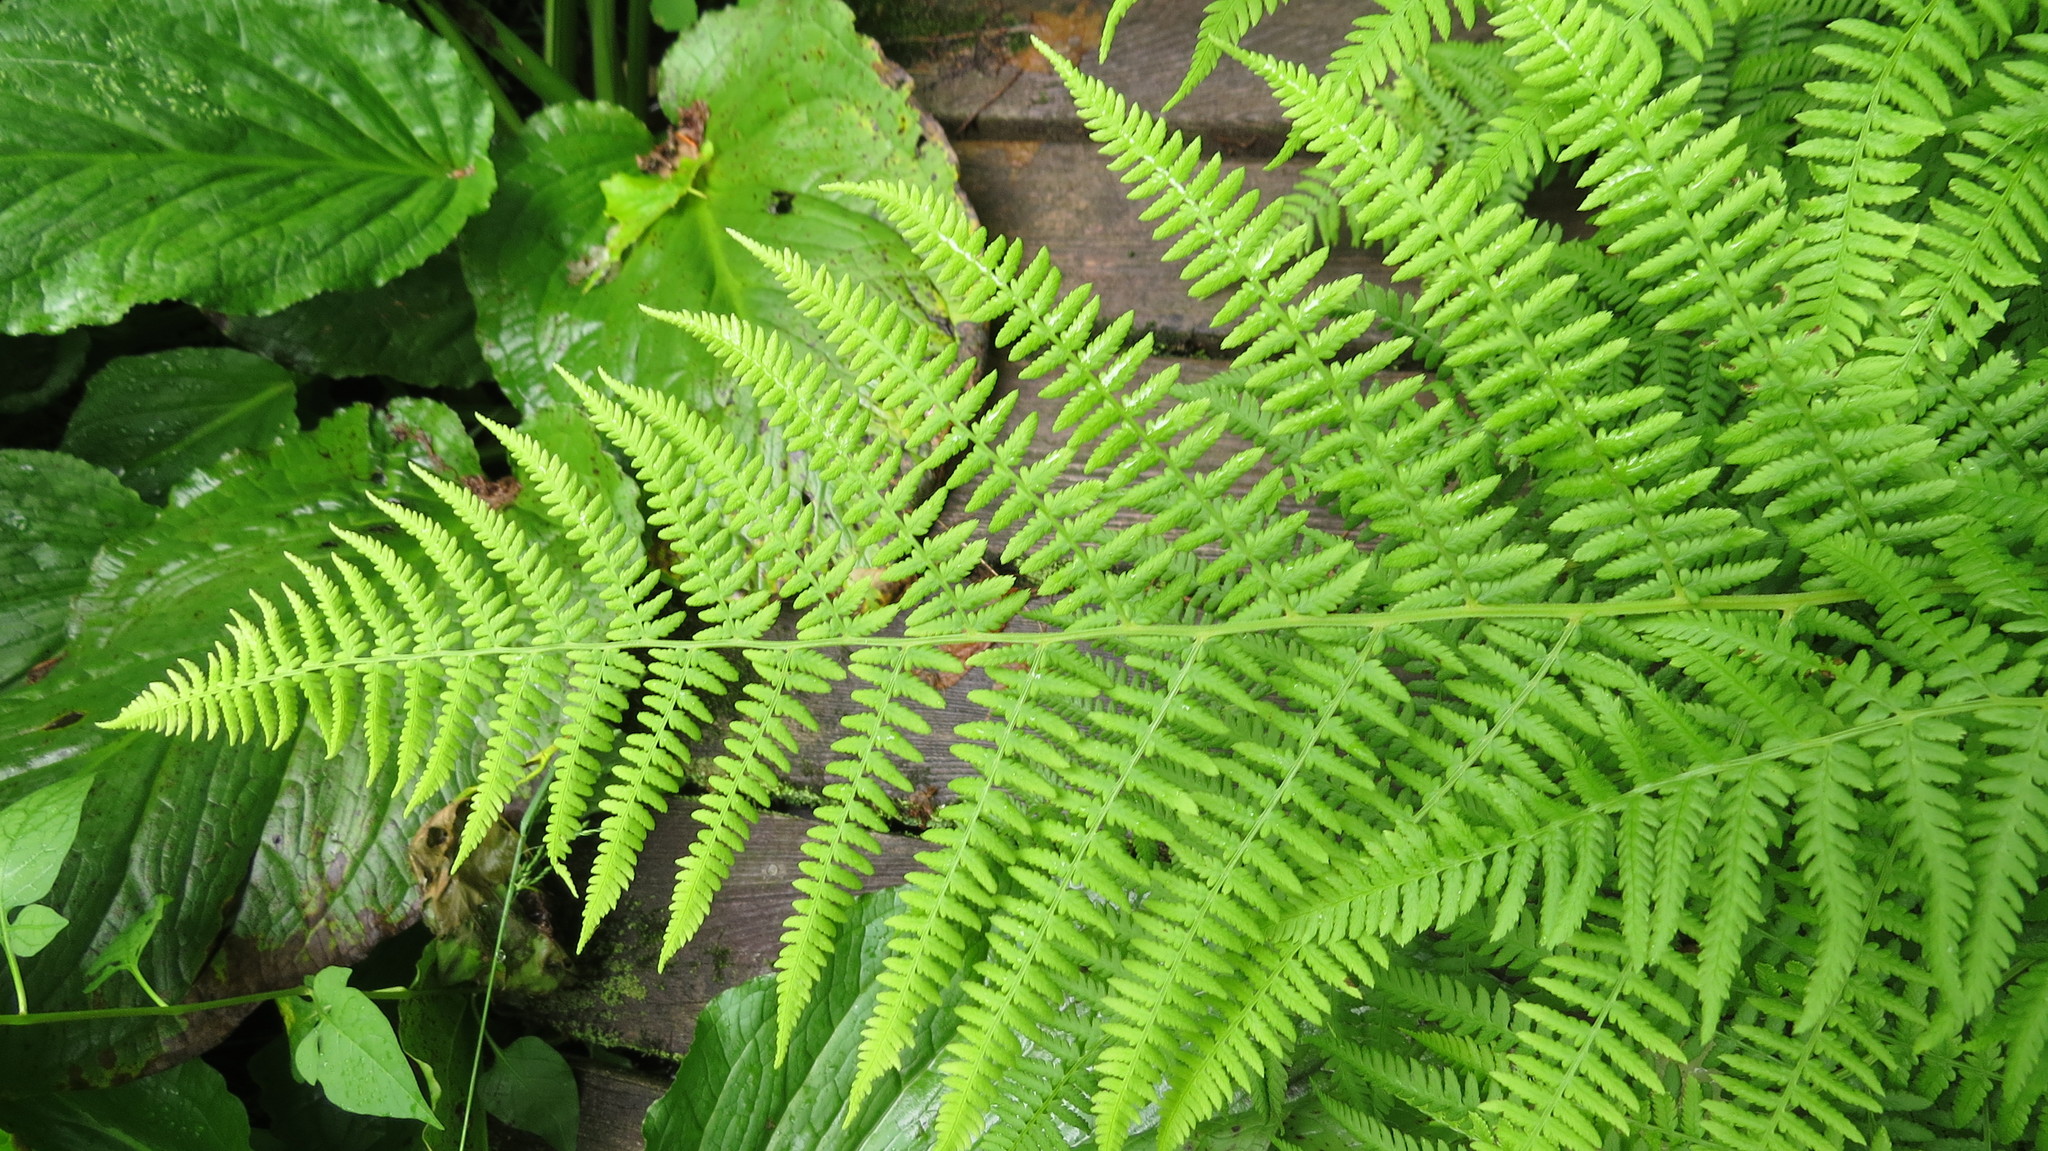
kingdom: Plantae
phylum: Tracheophyta
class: Polypodiopsida
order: Polypodiales
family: Athyriaceae
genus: Athyrium
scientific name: Athyrium angustum
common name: Northern lady fern
